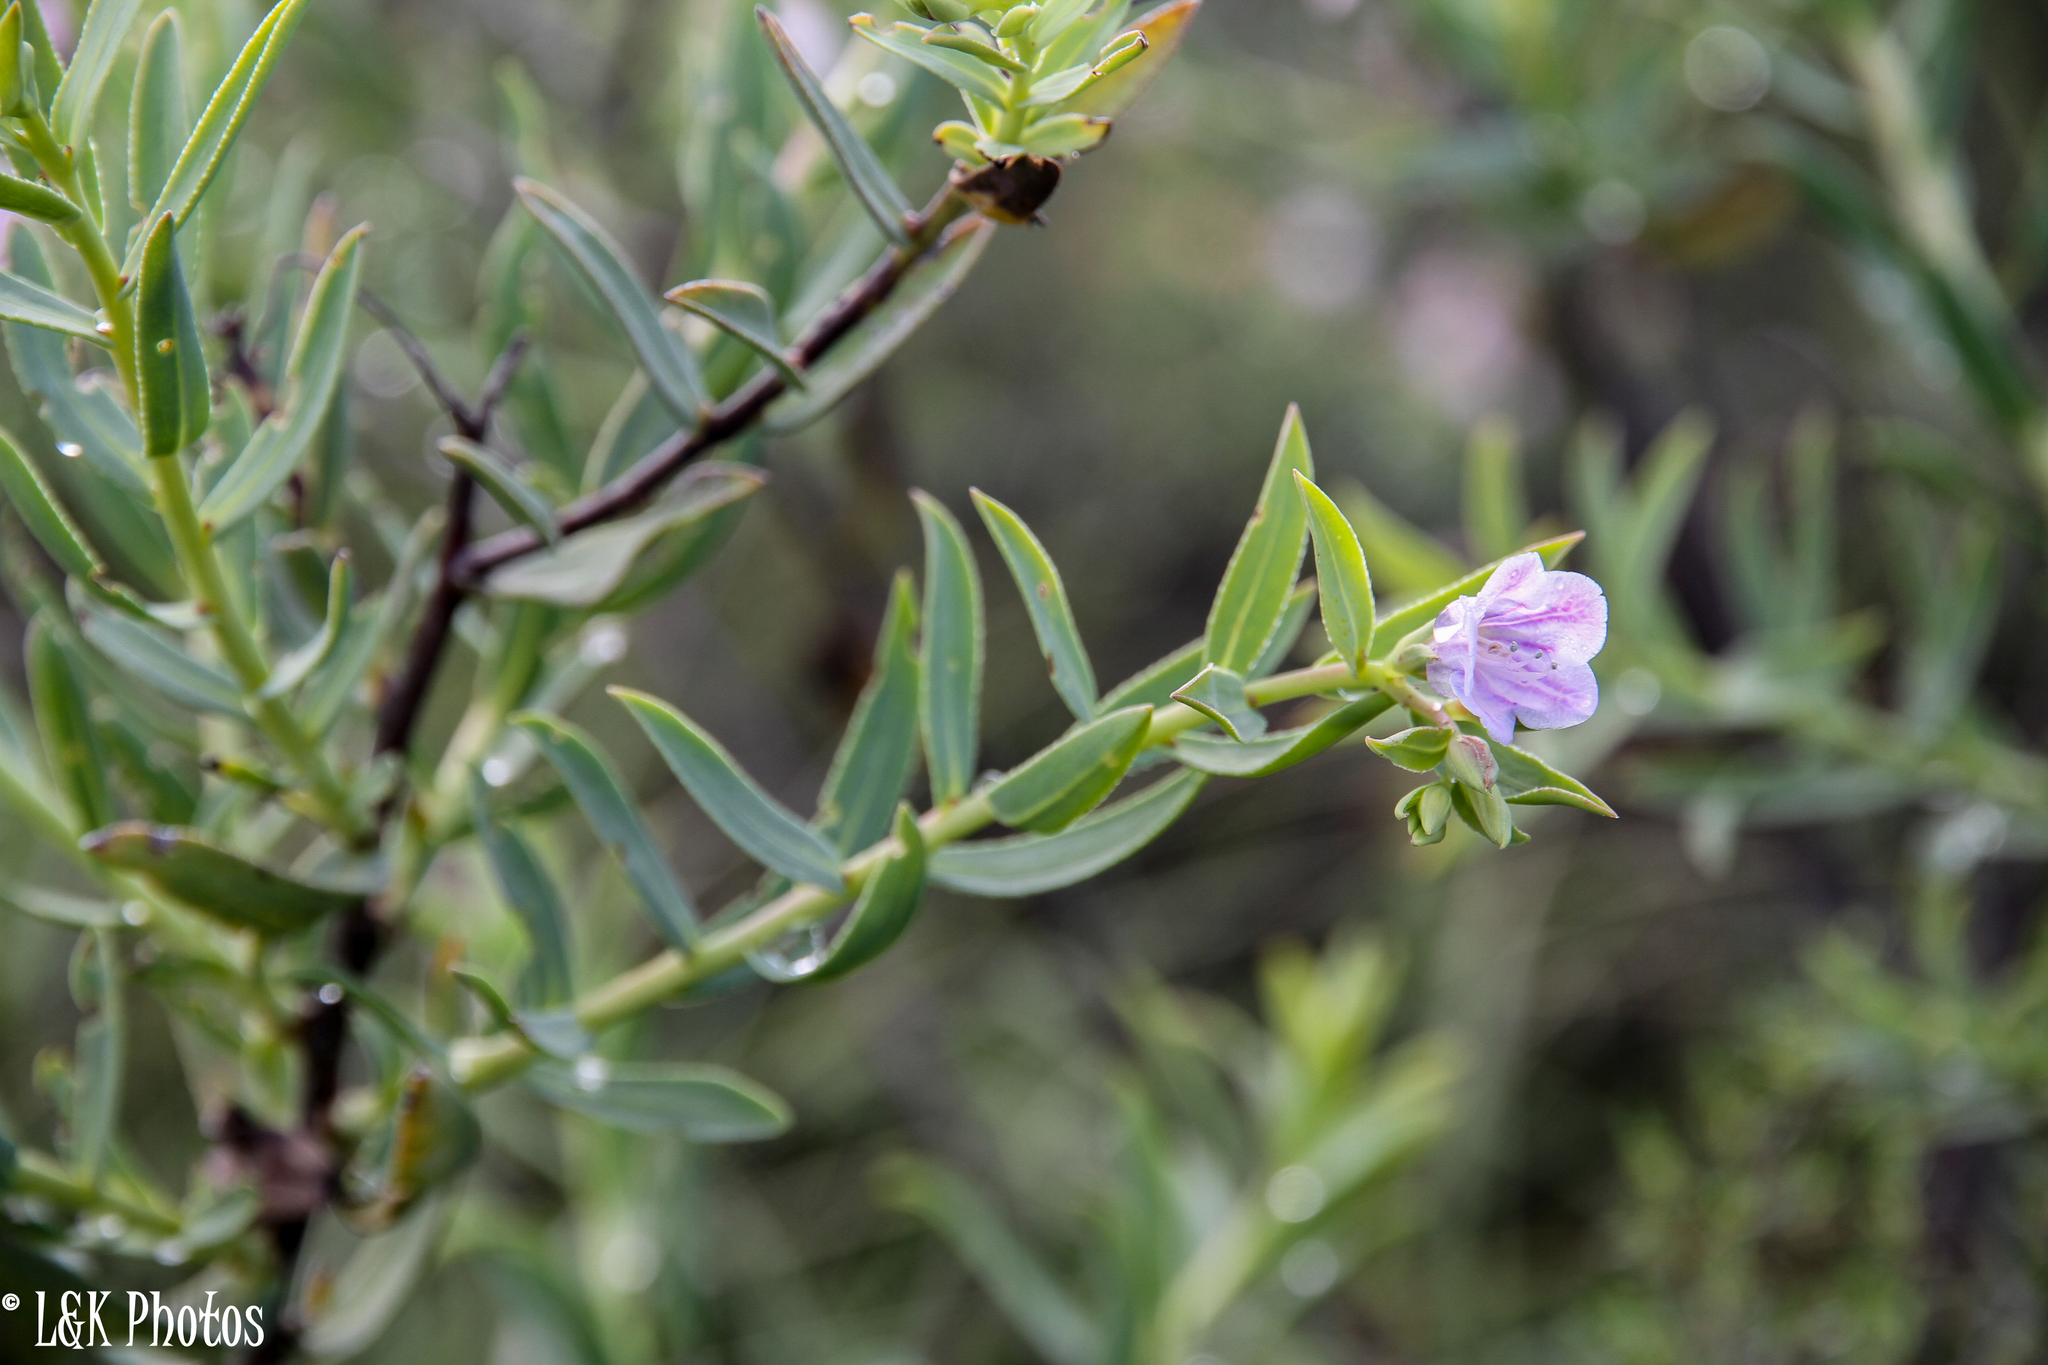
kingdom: Plantae
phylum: Tracheophyta
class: Magnoliopsida
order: Boraginales
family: Boraginaceae
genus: Lobostemon
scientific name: Lobostemon glaucophyllus
